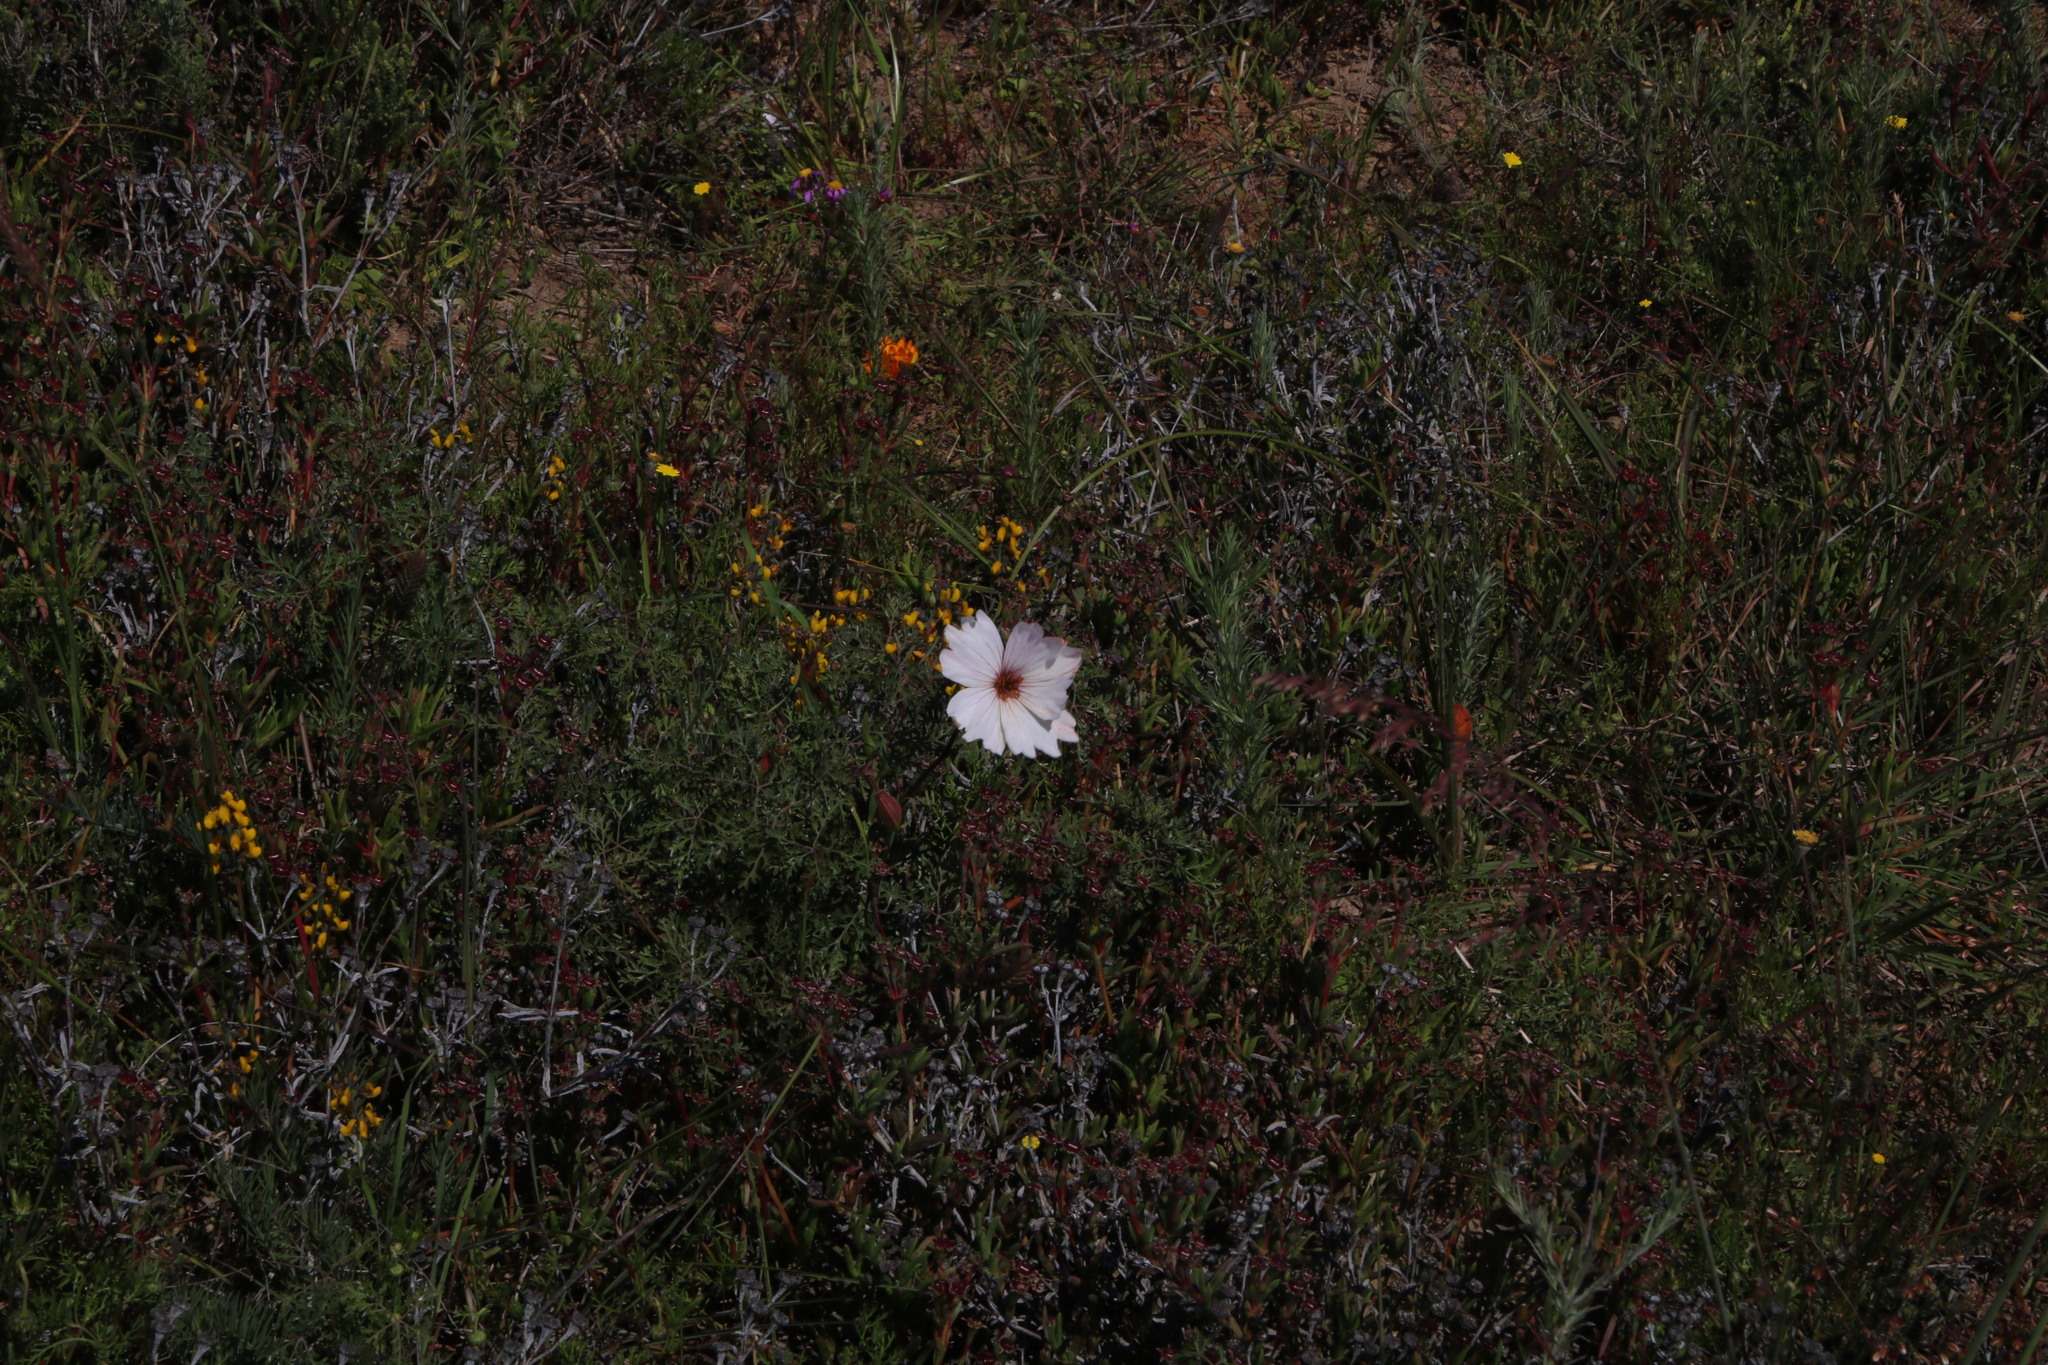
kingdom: Plantae
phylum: Tracheophyta
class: Magnoliopsida
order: Geraniales
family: Geraniaceae
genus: Monsonia
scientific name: Monsonia speciosa
